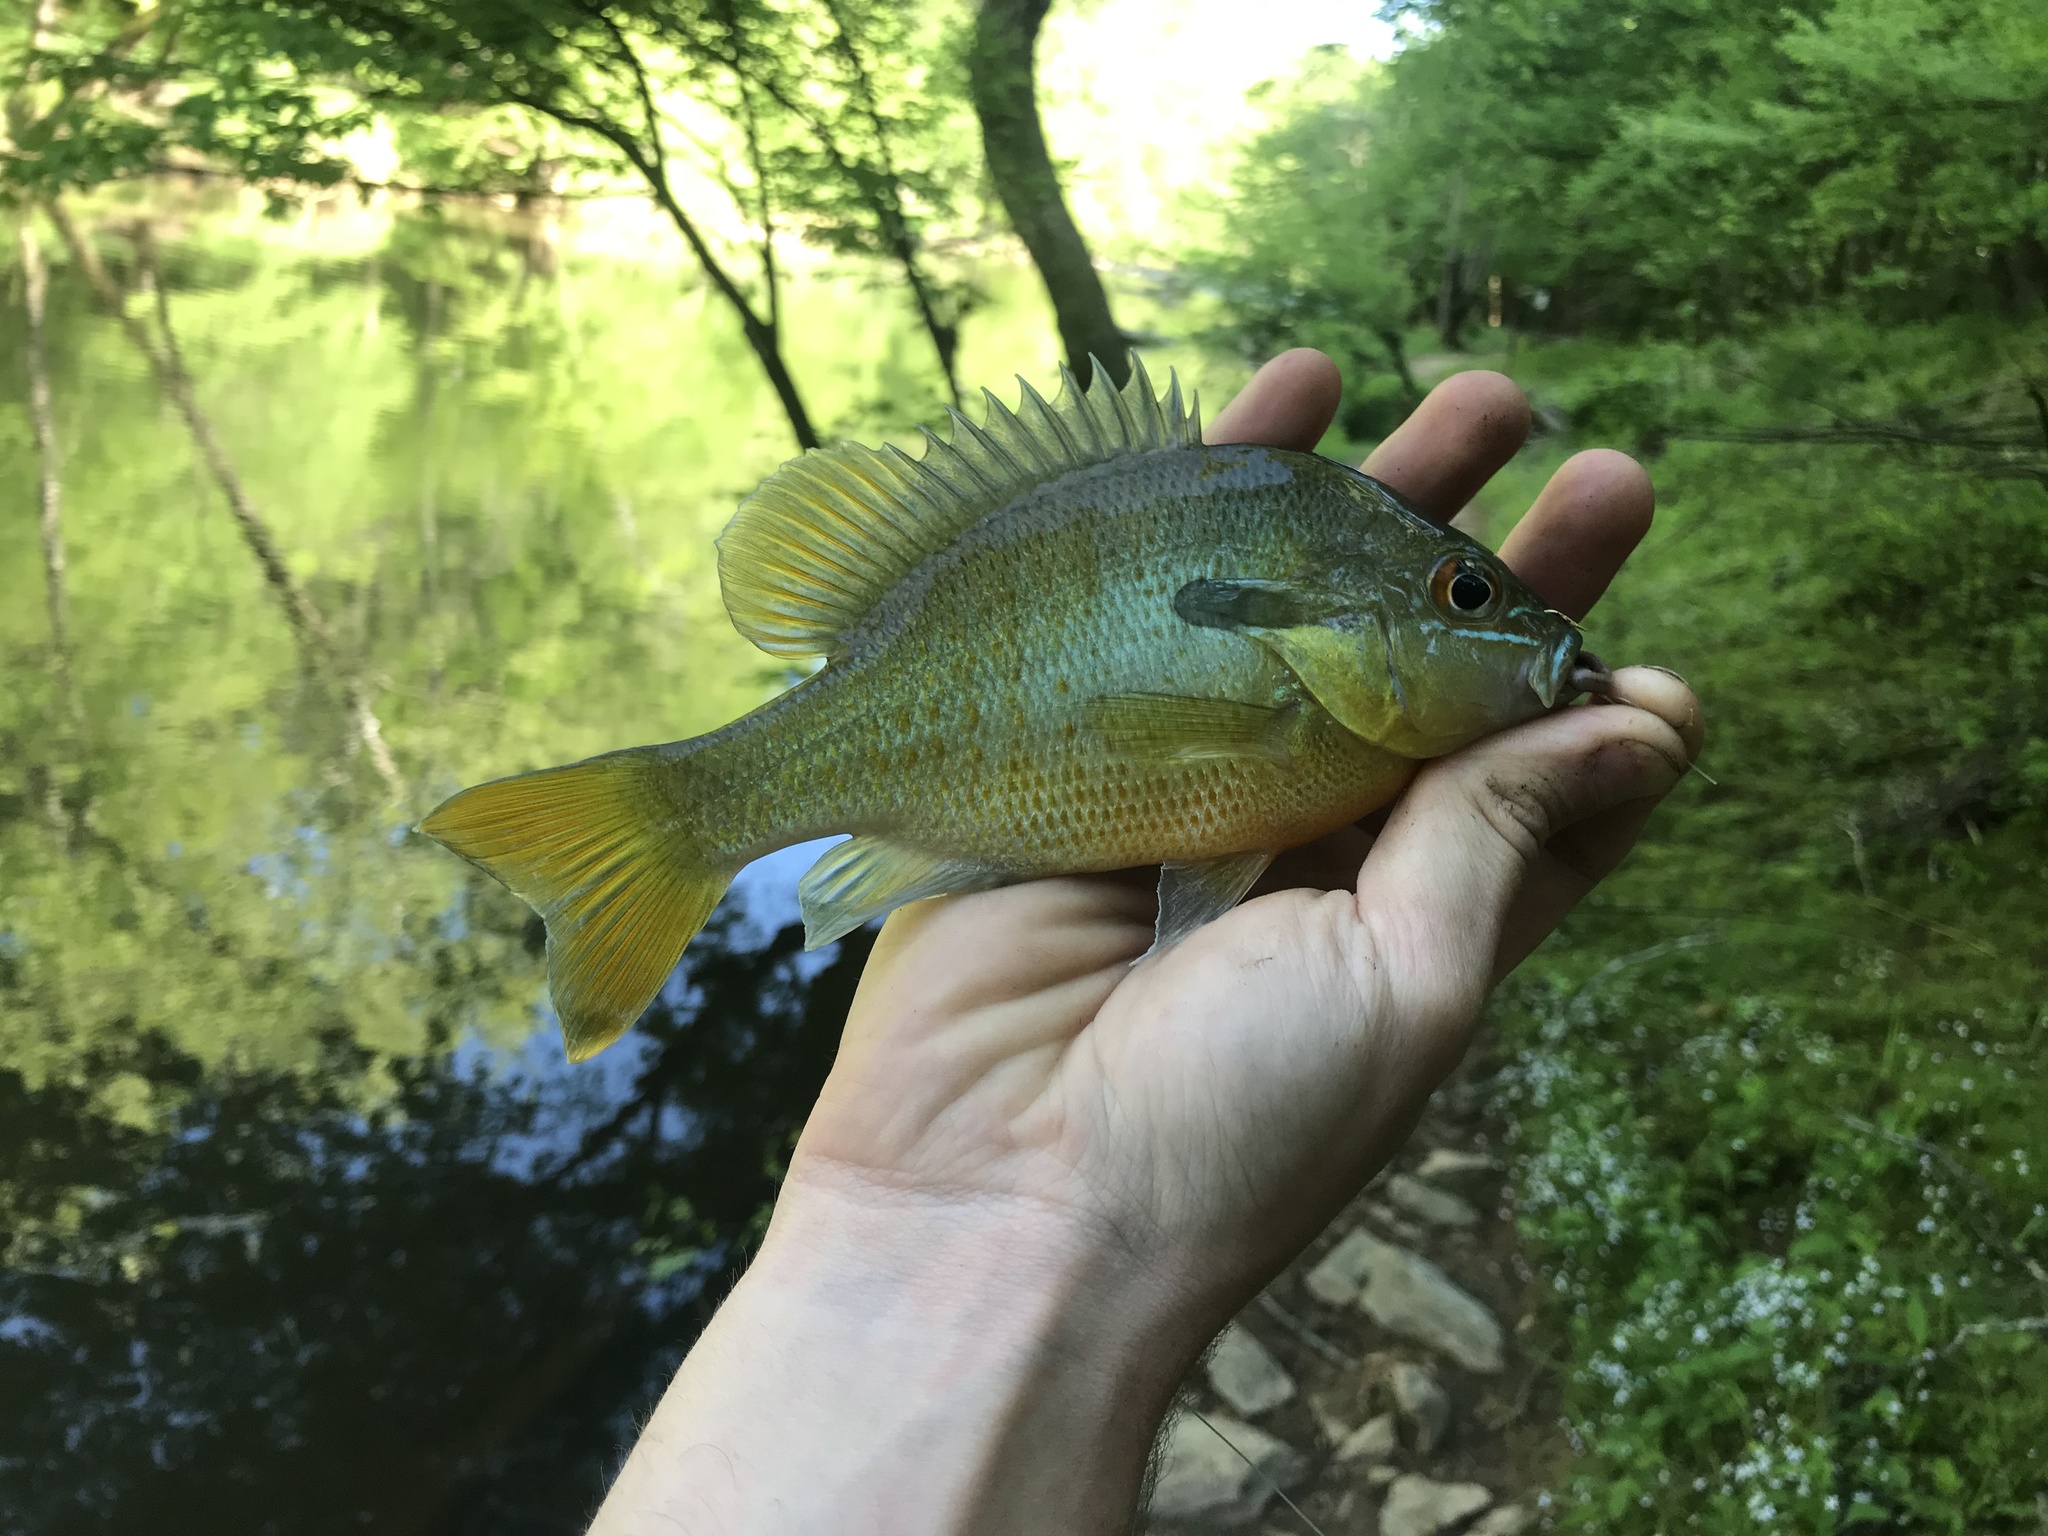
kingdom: Animalia
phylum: Chordata
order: Perciformes
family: Centrarchidae
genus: Lepomis
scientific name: Lepomis auritus
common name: Redbreast sunfish
